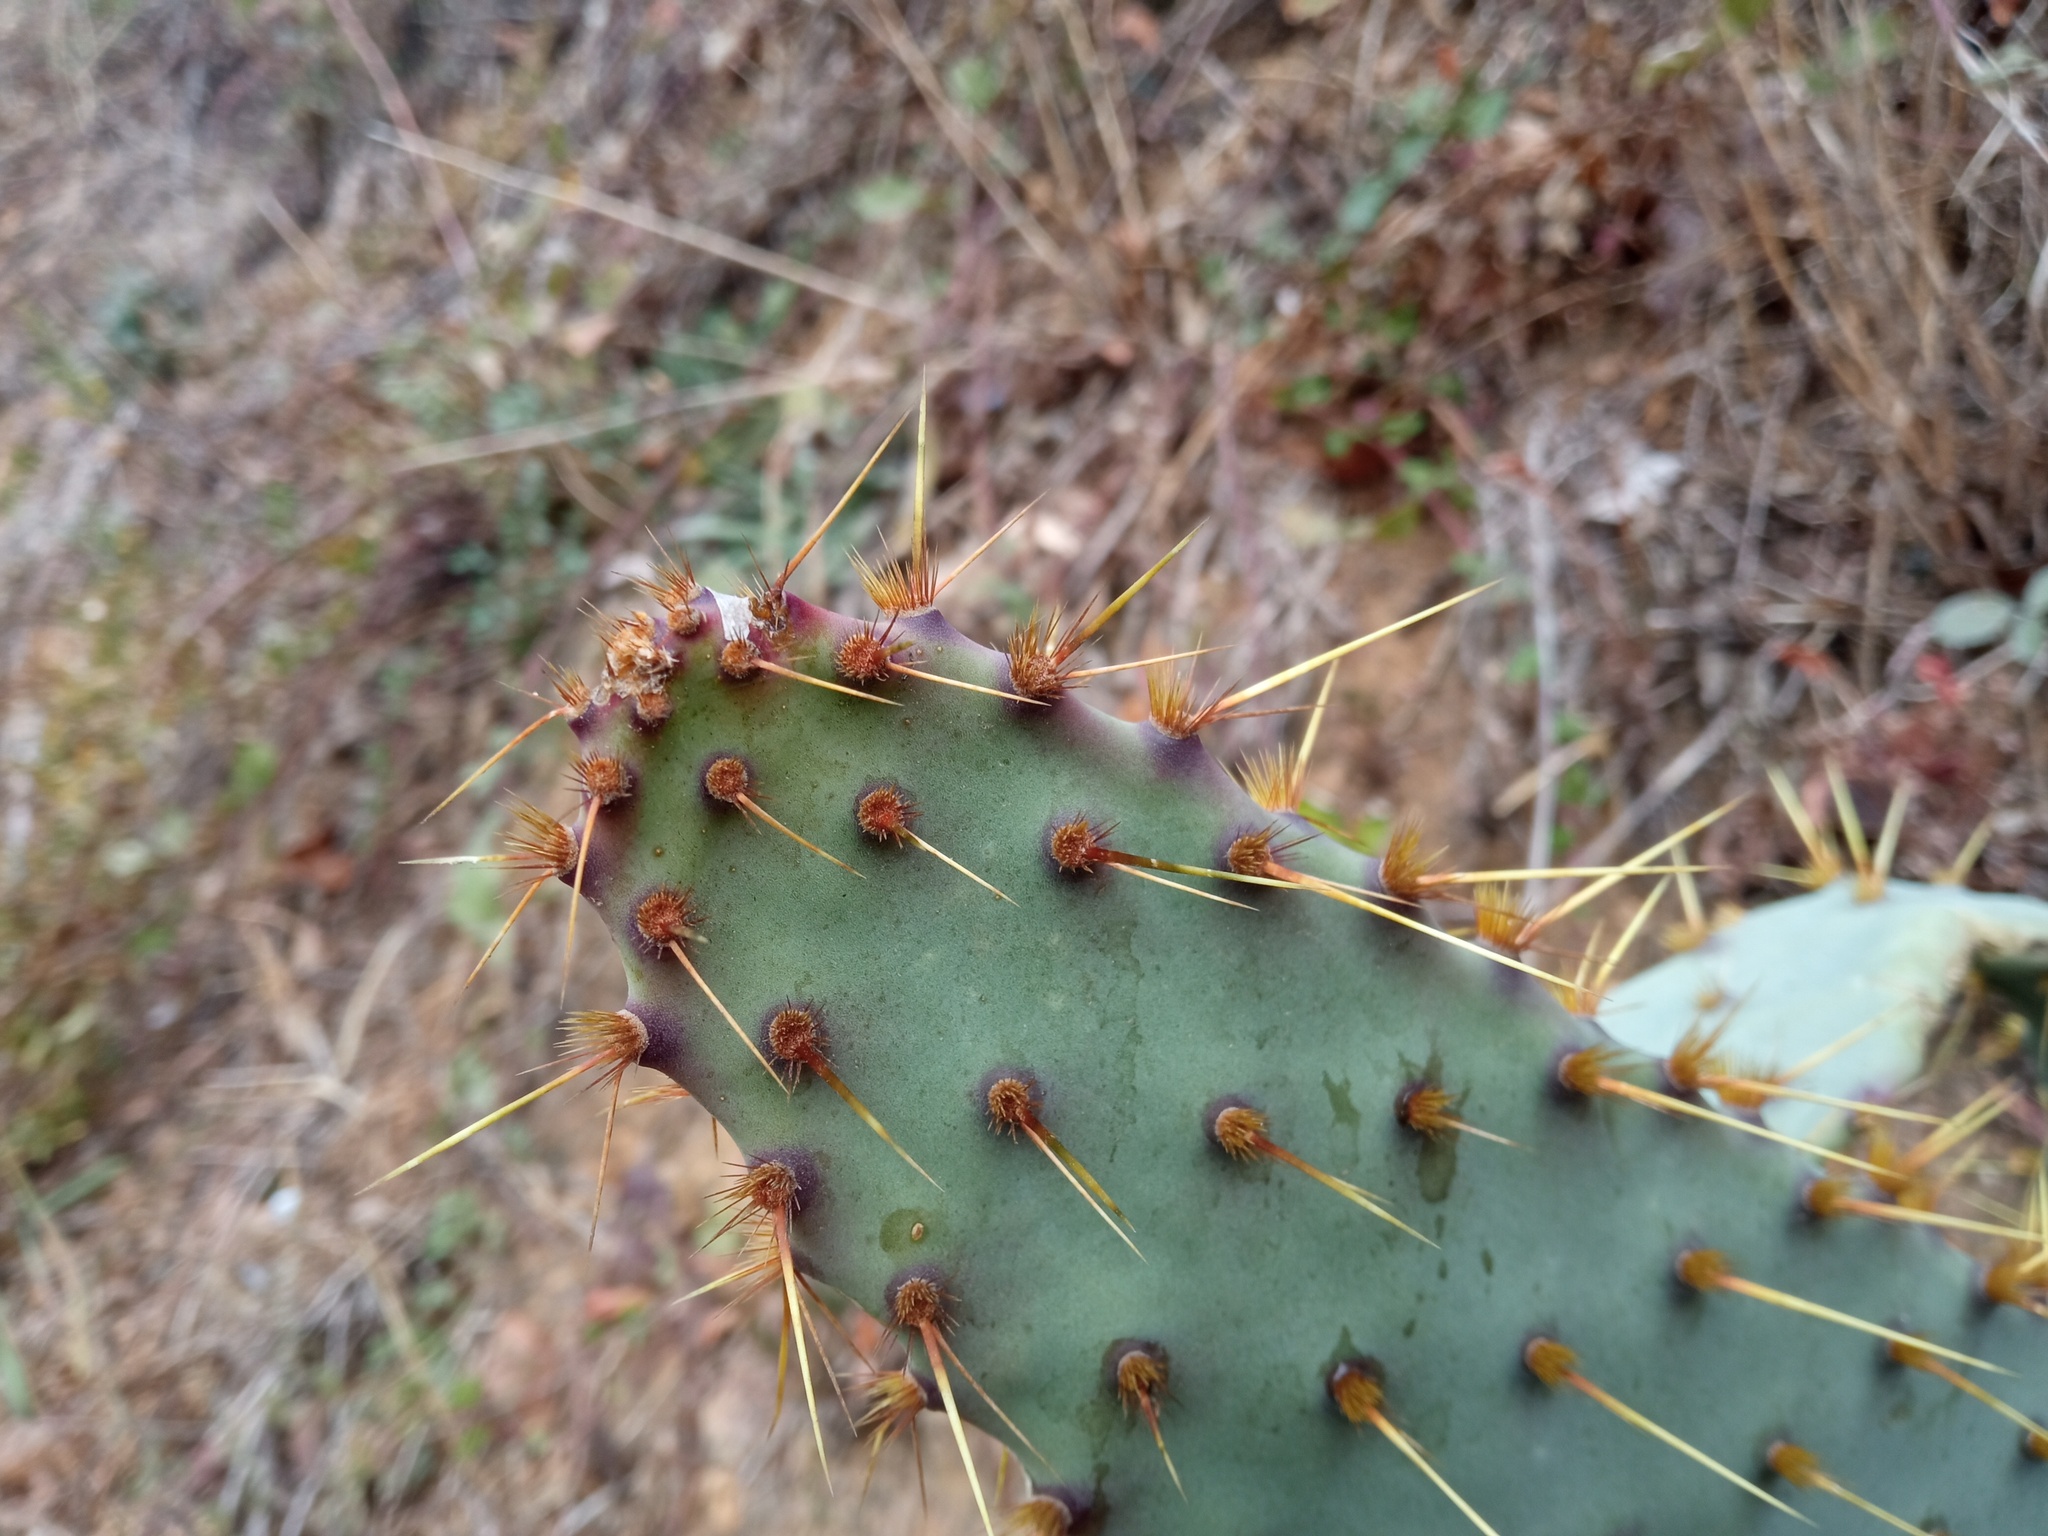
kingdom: Plantae
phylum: Tracheophyta
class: Magnoliopsida
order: Caryophyllales
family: Cactaceae
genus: Opuntia
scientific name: Opuntia engelmannii
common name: Cactus-apple
